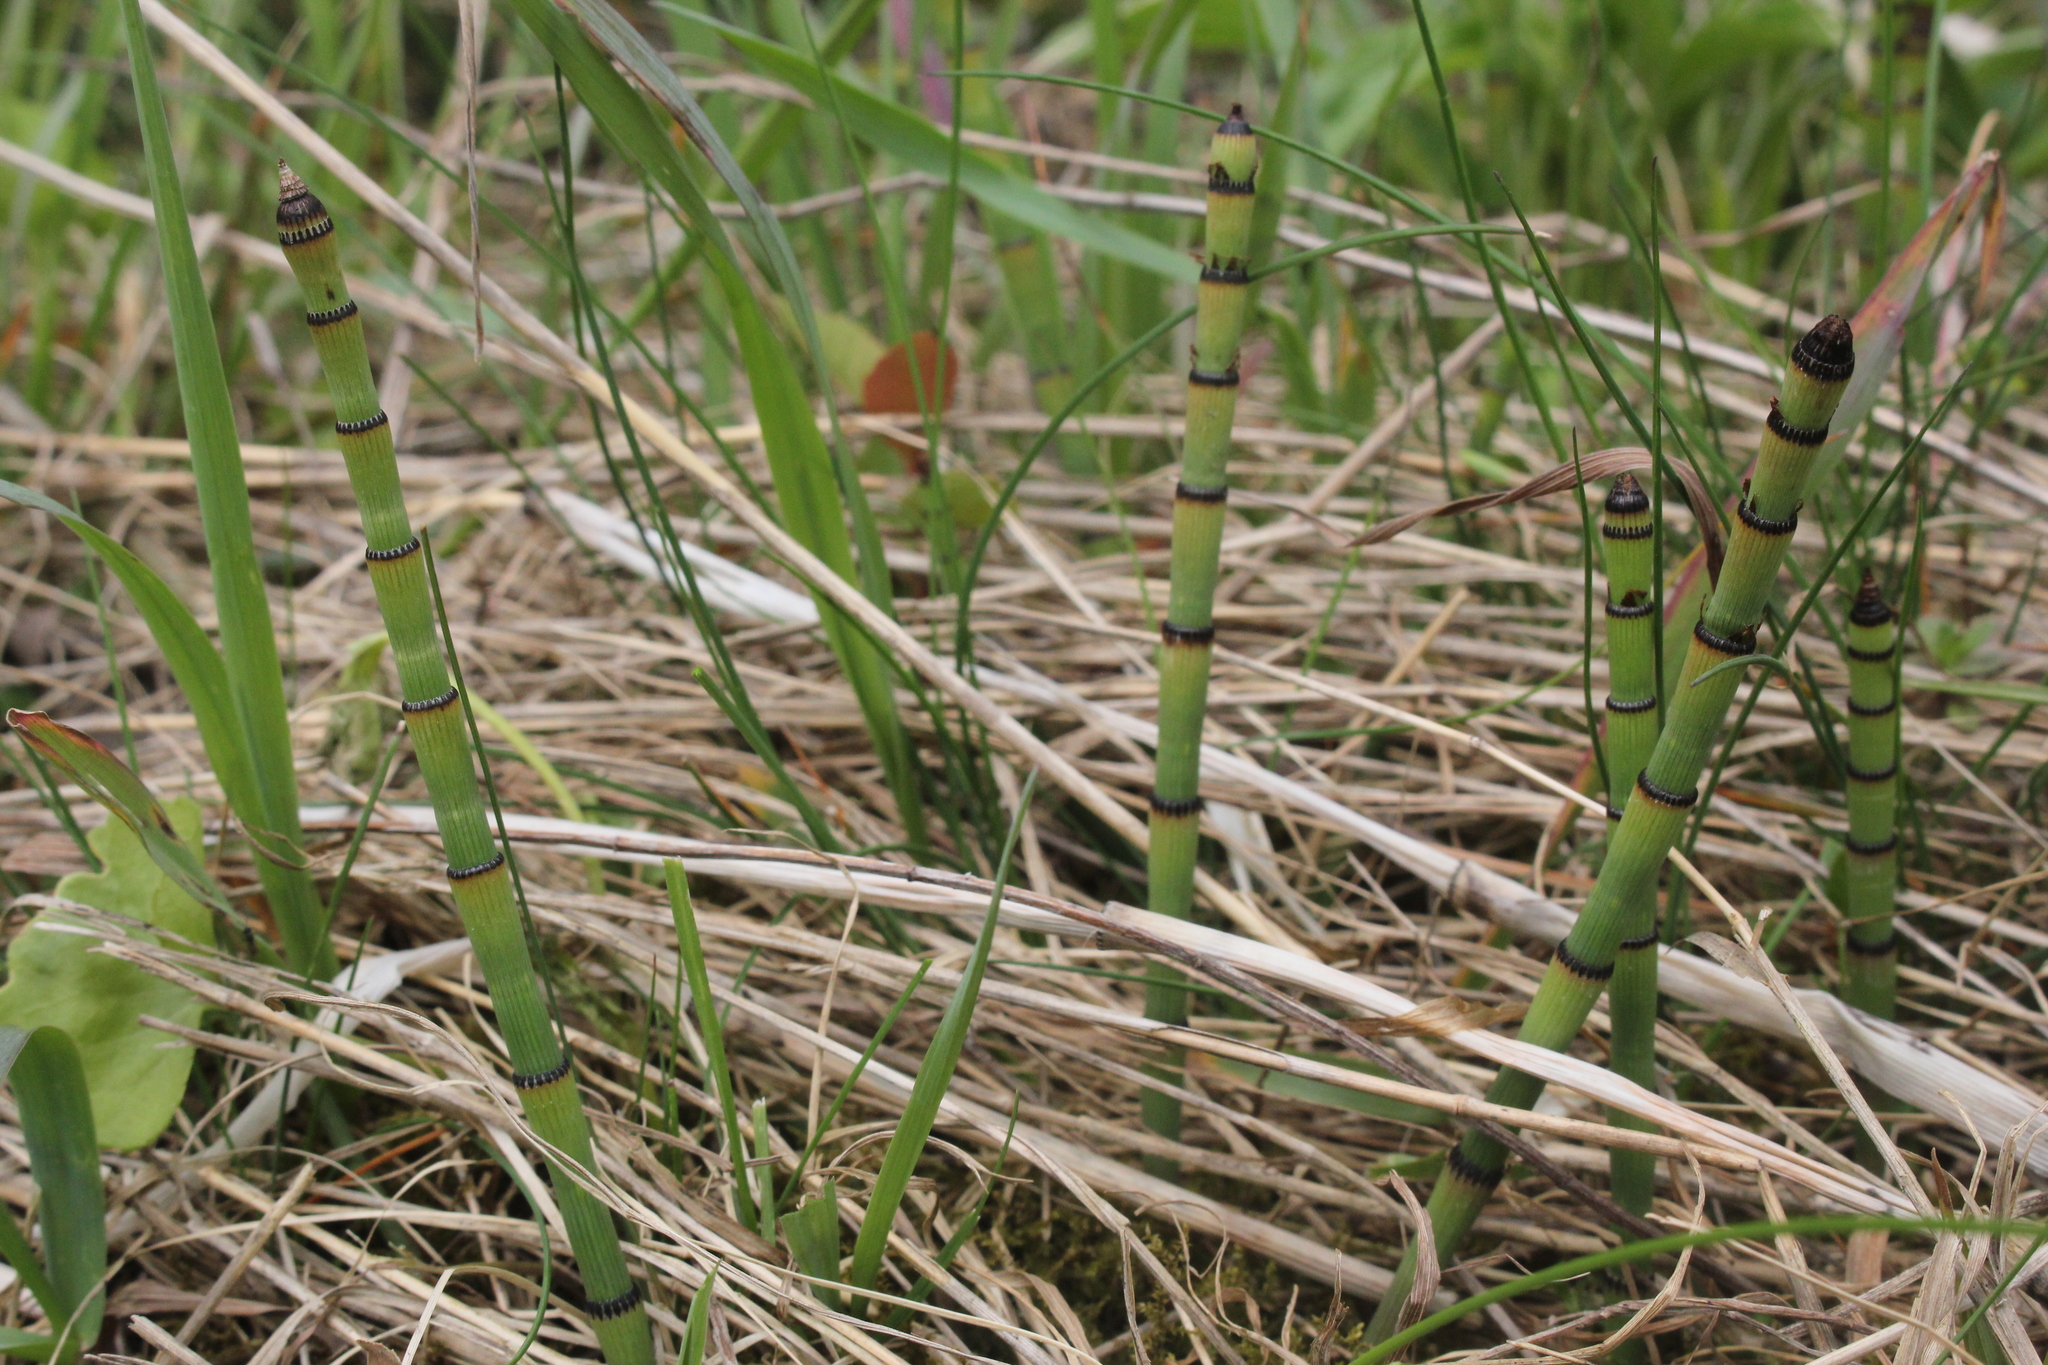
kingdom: Plantae
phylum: Tracheophyta
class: Polypodiopsida
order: Equisetales
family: Equisetaceae
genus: Equisetum
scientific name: Equisetum laevigatum
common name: Smooth scouring-rush
